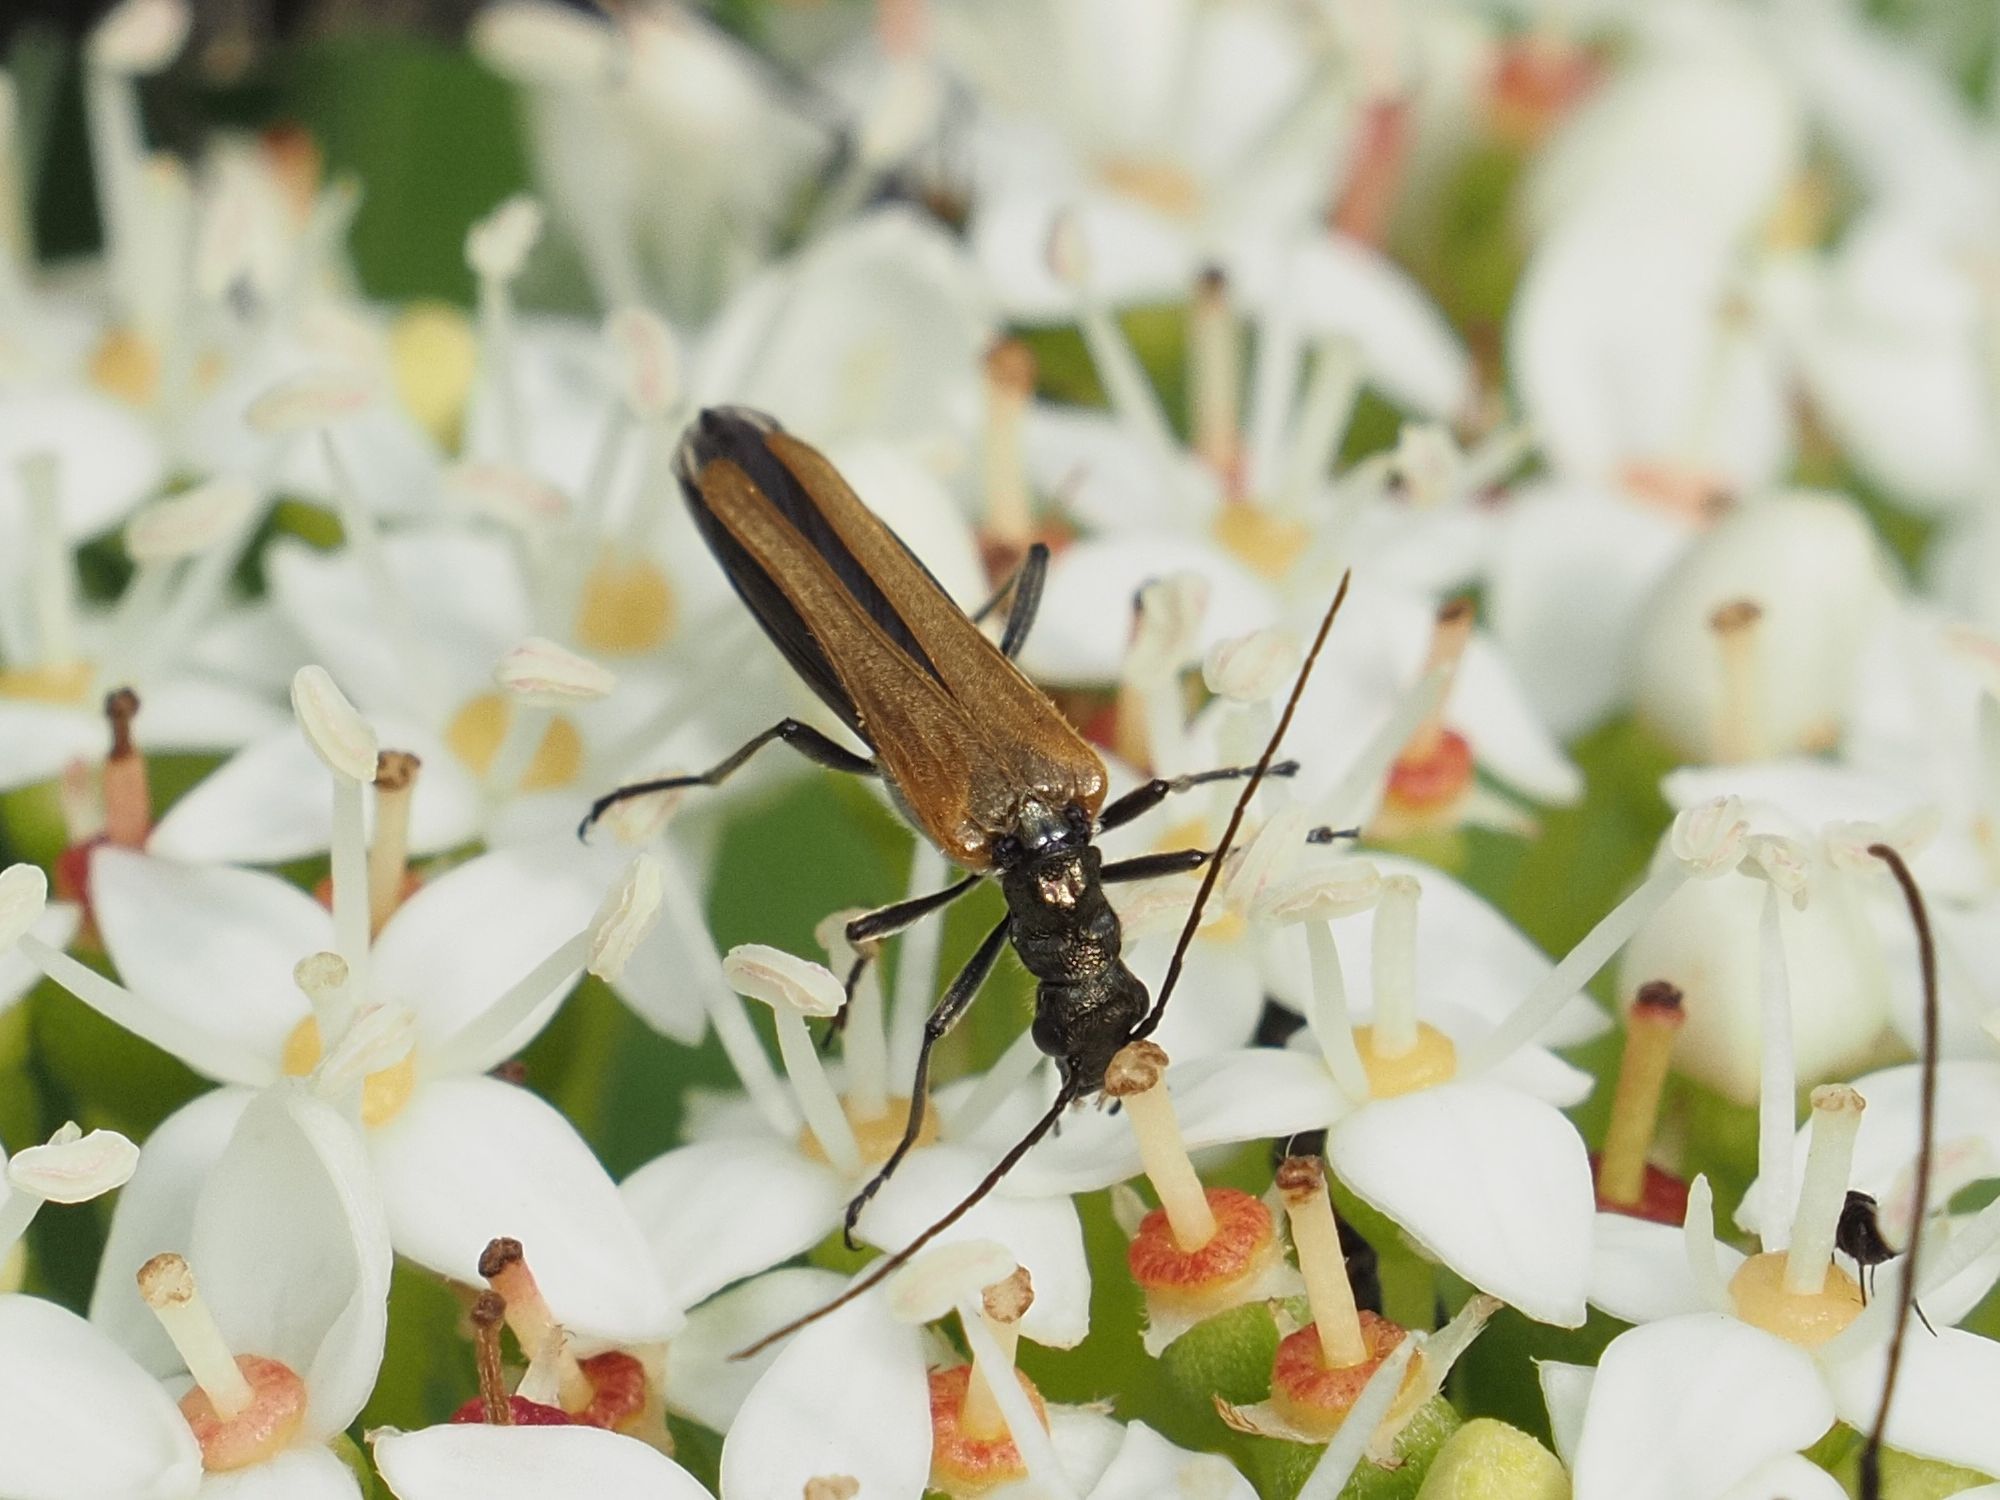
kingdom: Animalia
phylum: Arthropoda
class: Insecta
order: Coleoptera
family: Oedemeridae
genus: Oedemera
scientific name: Oedemera femorata
